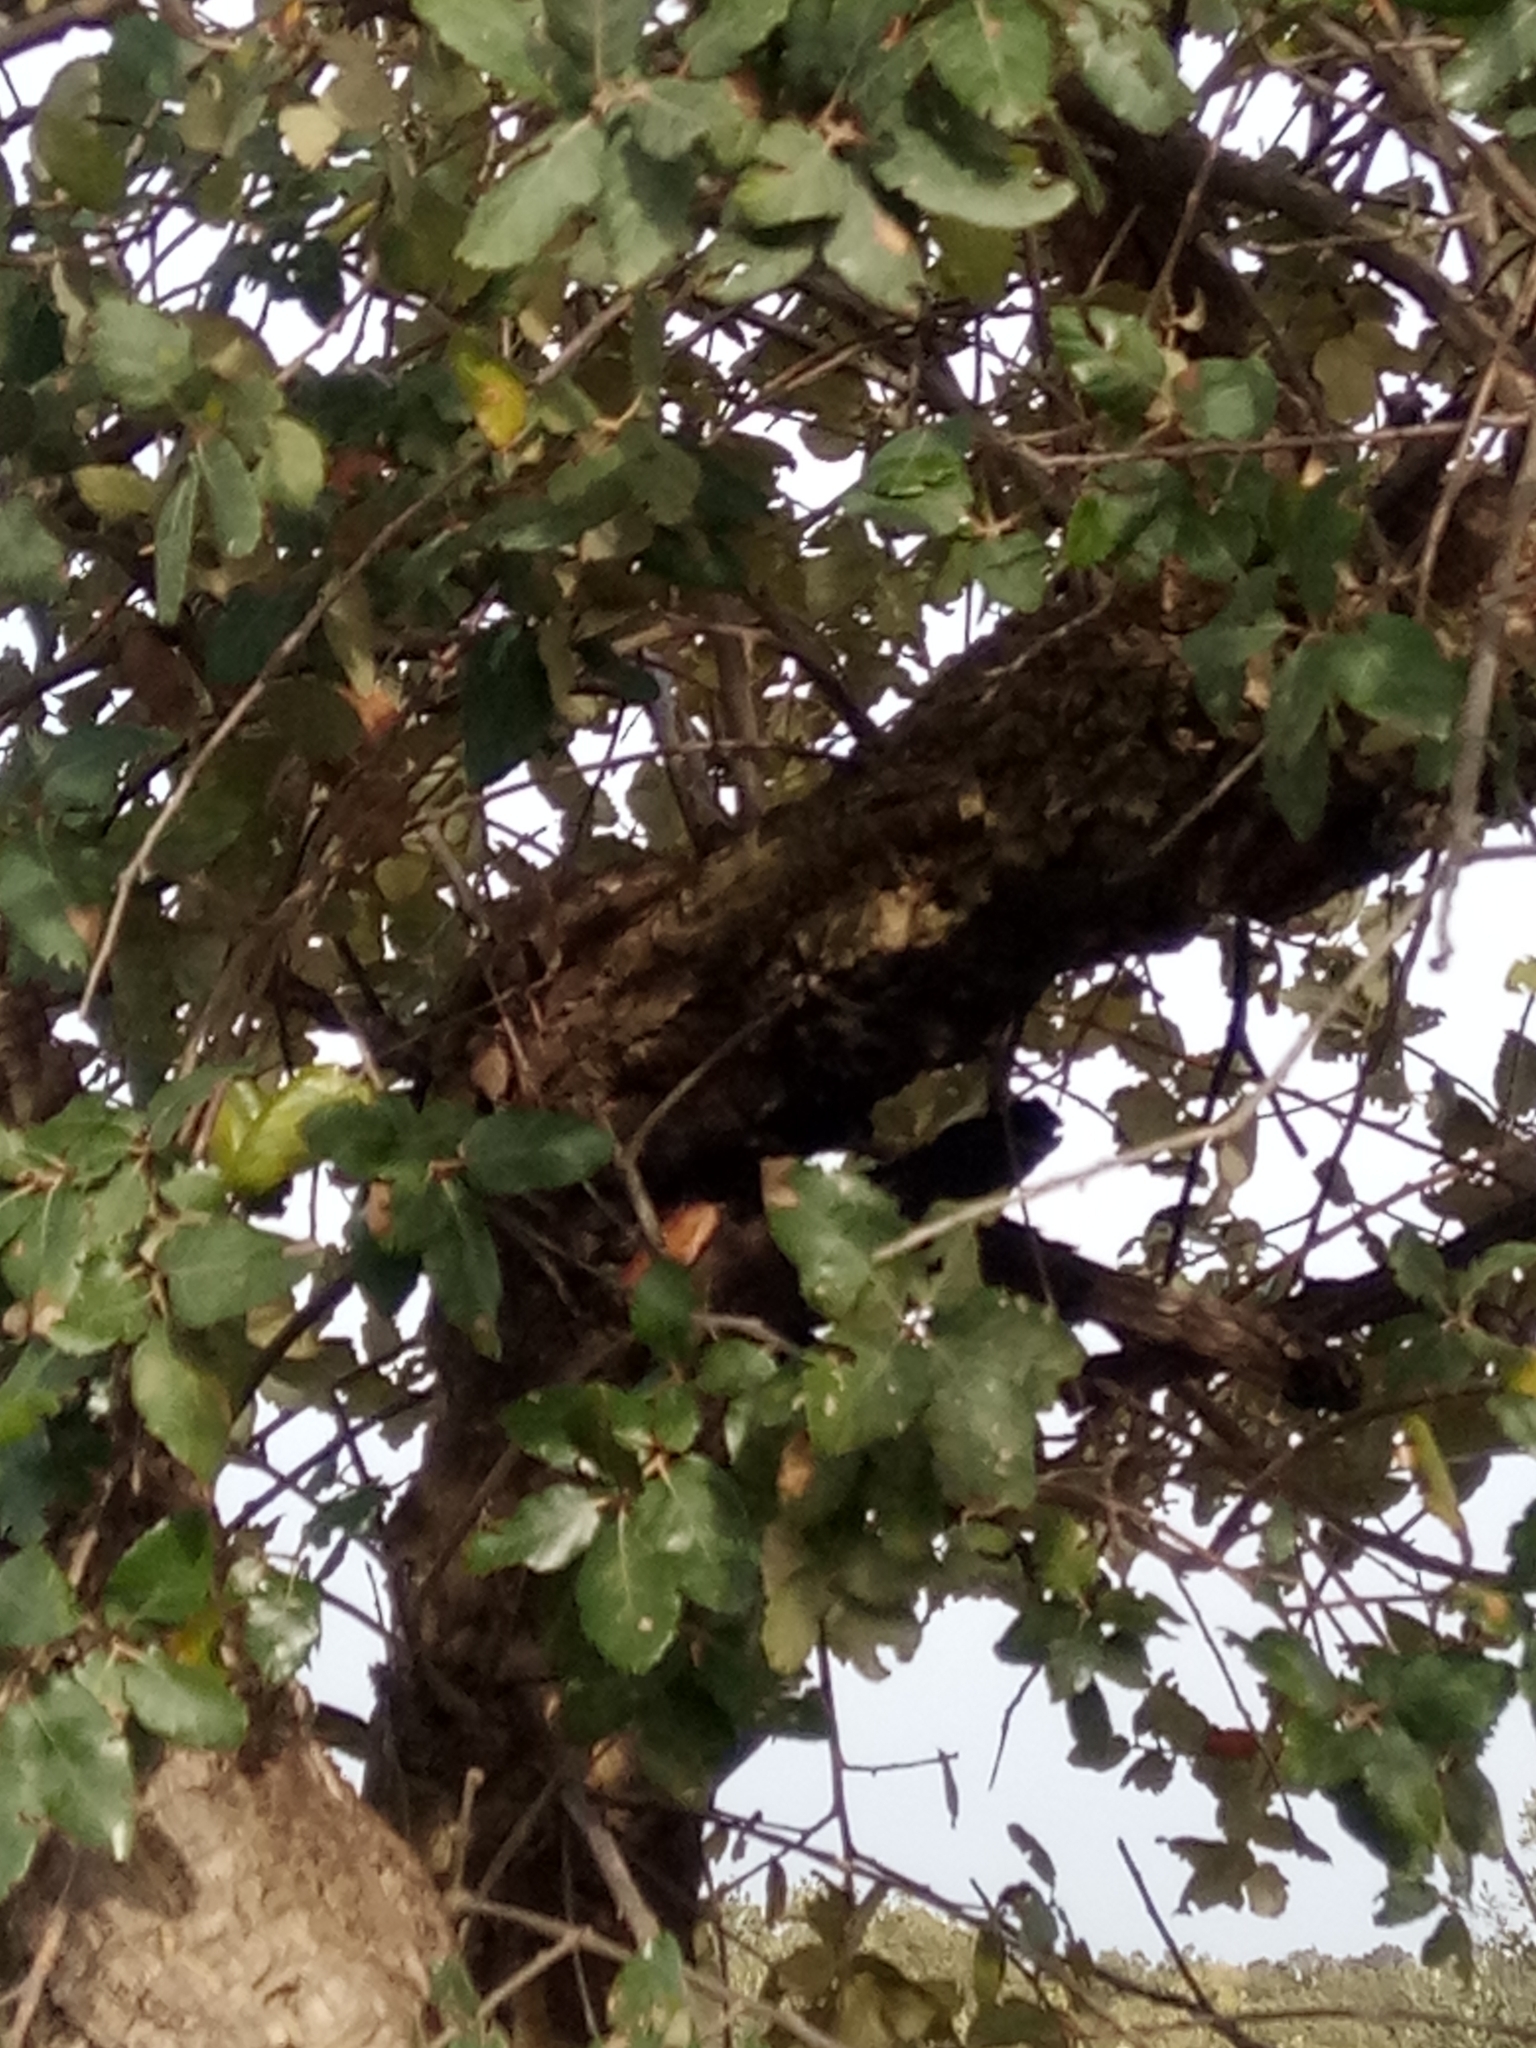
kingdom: Plantae
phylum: Tracheophyta
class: Magnoliopsida
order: Fagales
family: Fagaceae
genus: Quercus
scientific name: Quercus suber
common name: Cork oak
